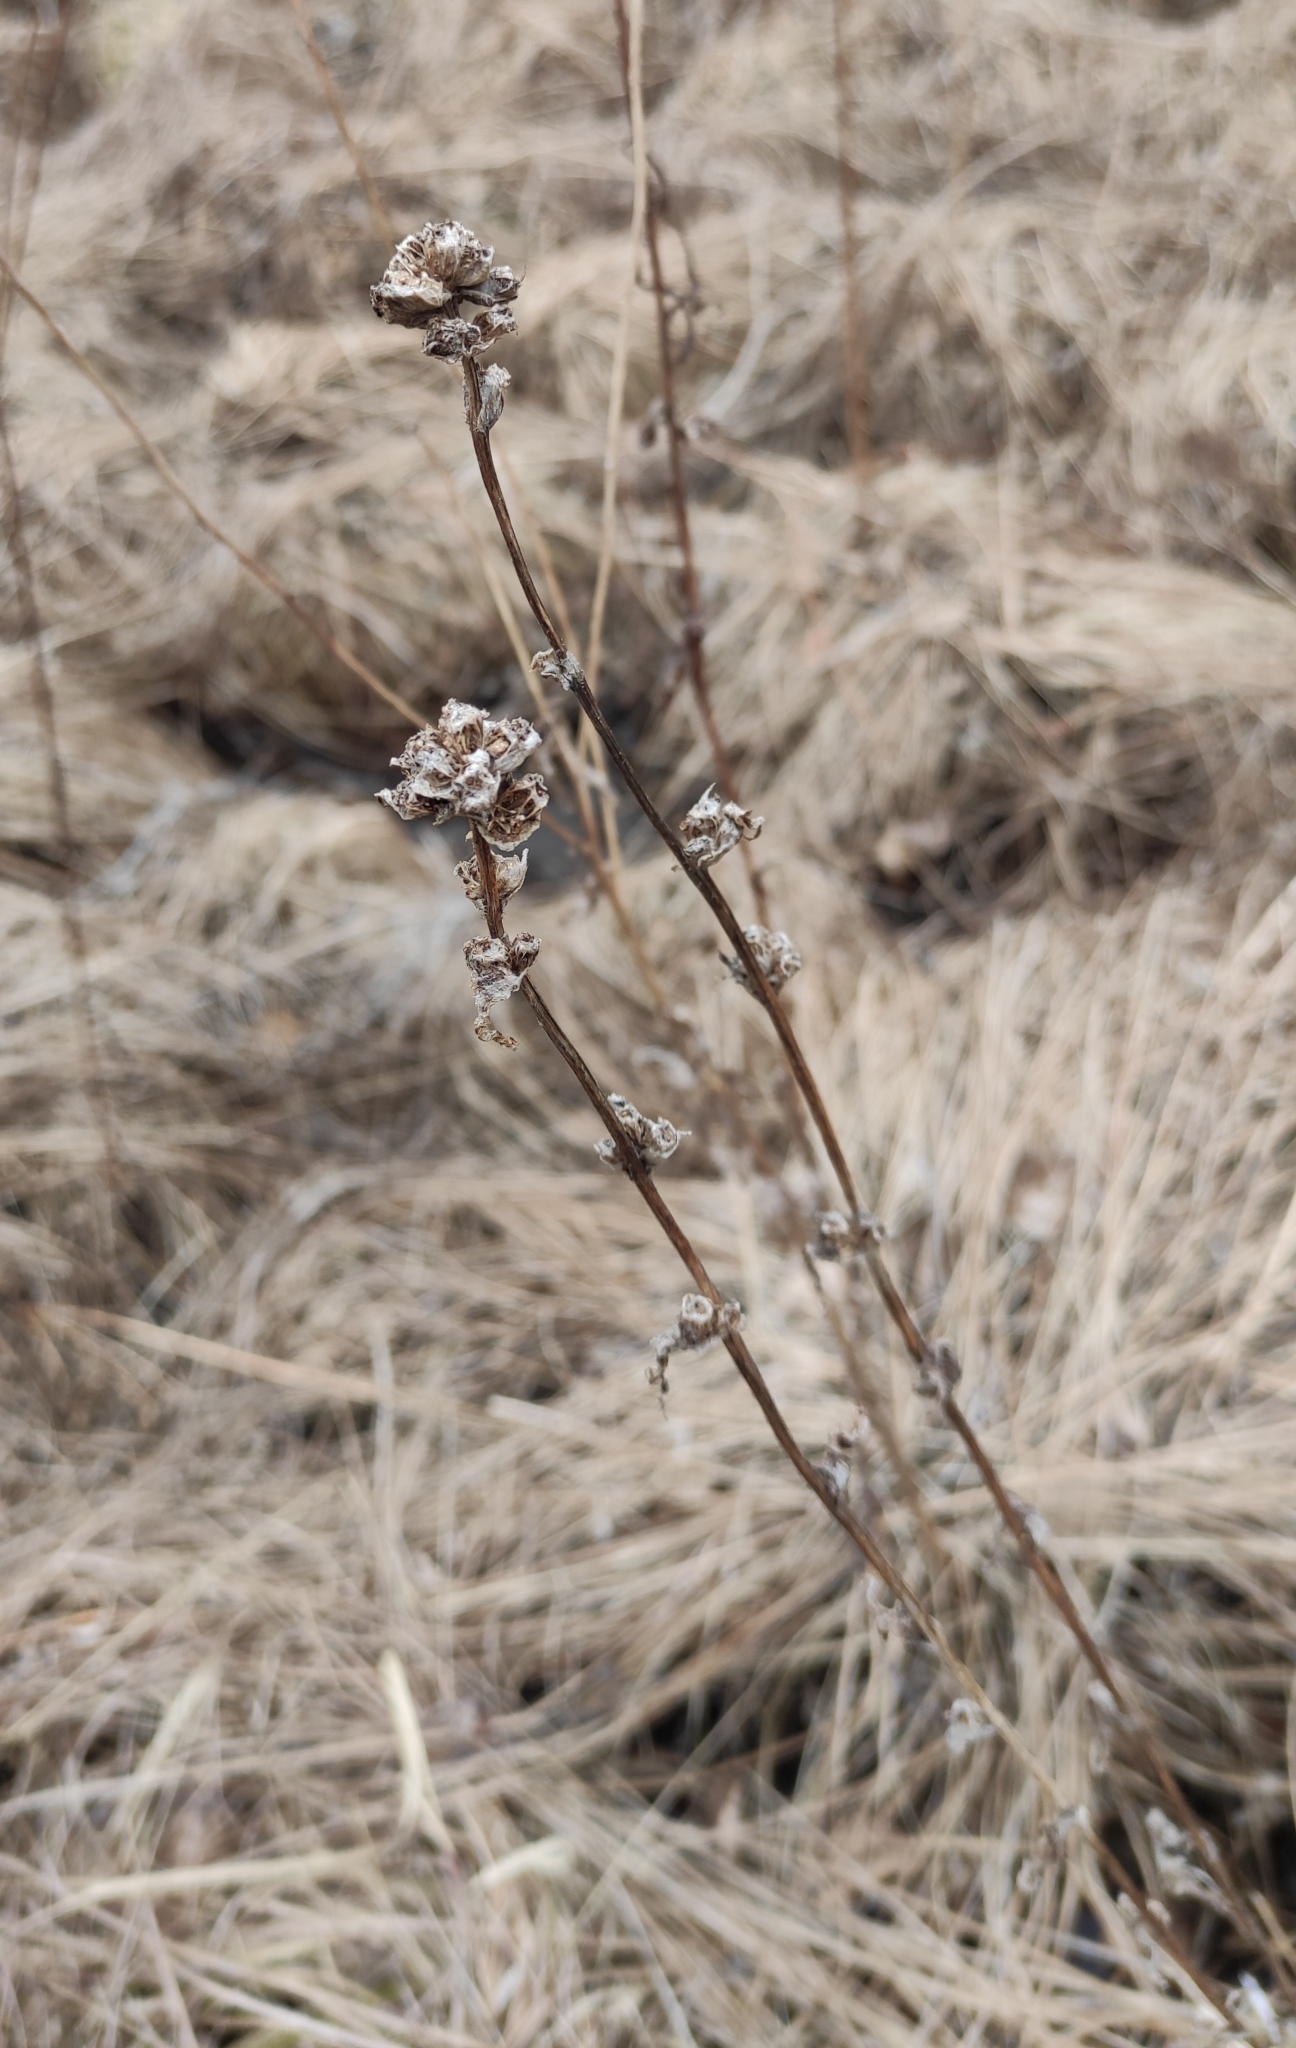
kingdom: Plantae
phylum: Tracheophyta
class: Magnoliopsida
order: Asterales
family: Campanulaceae
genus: Campanula
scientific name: Campanula glomerata
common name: Clustered bellflower
